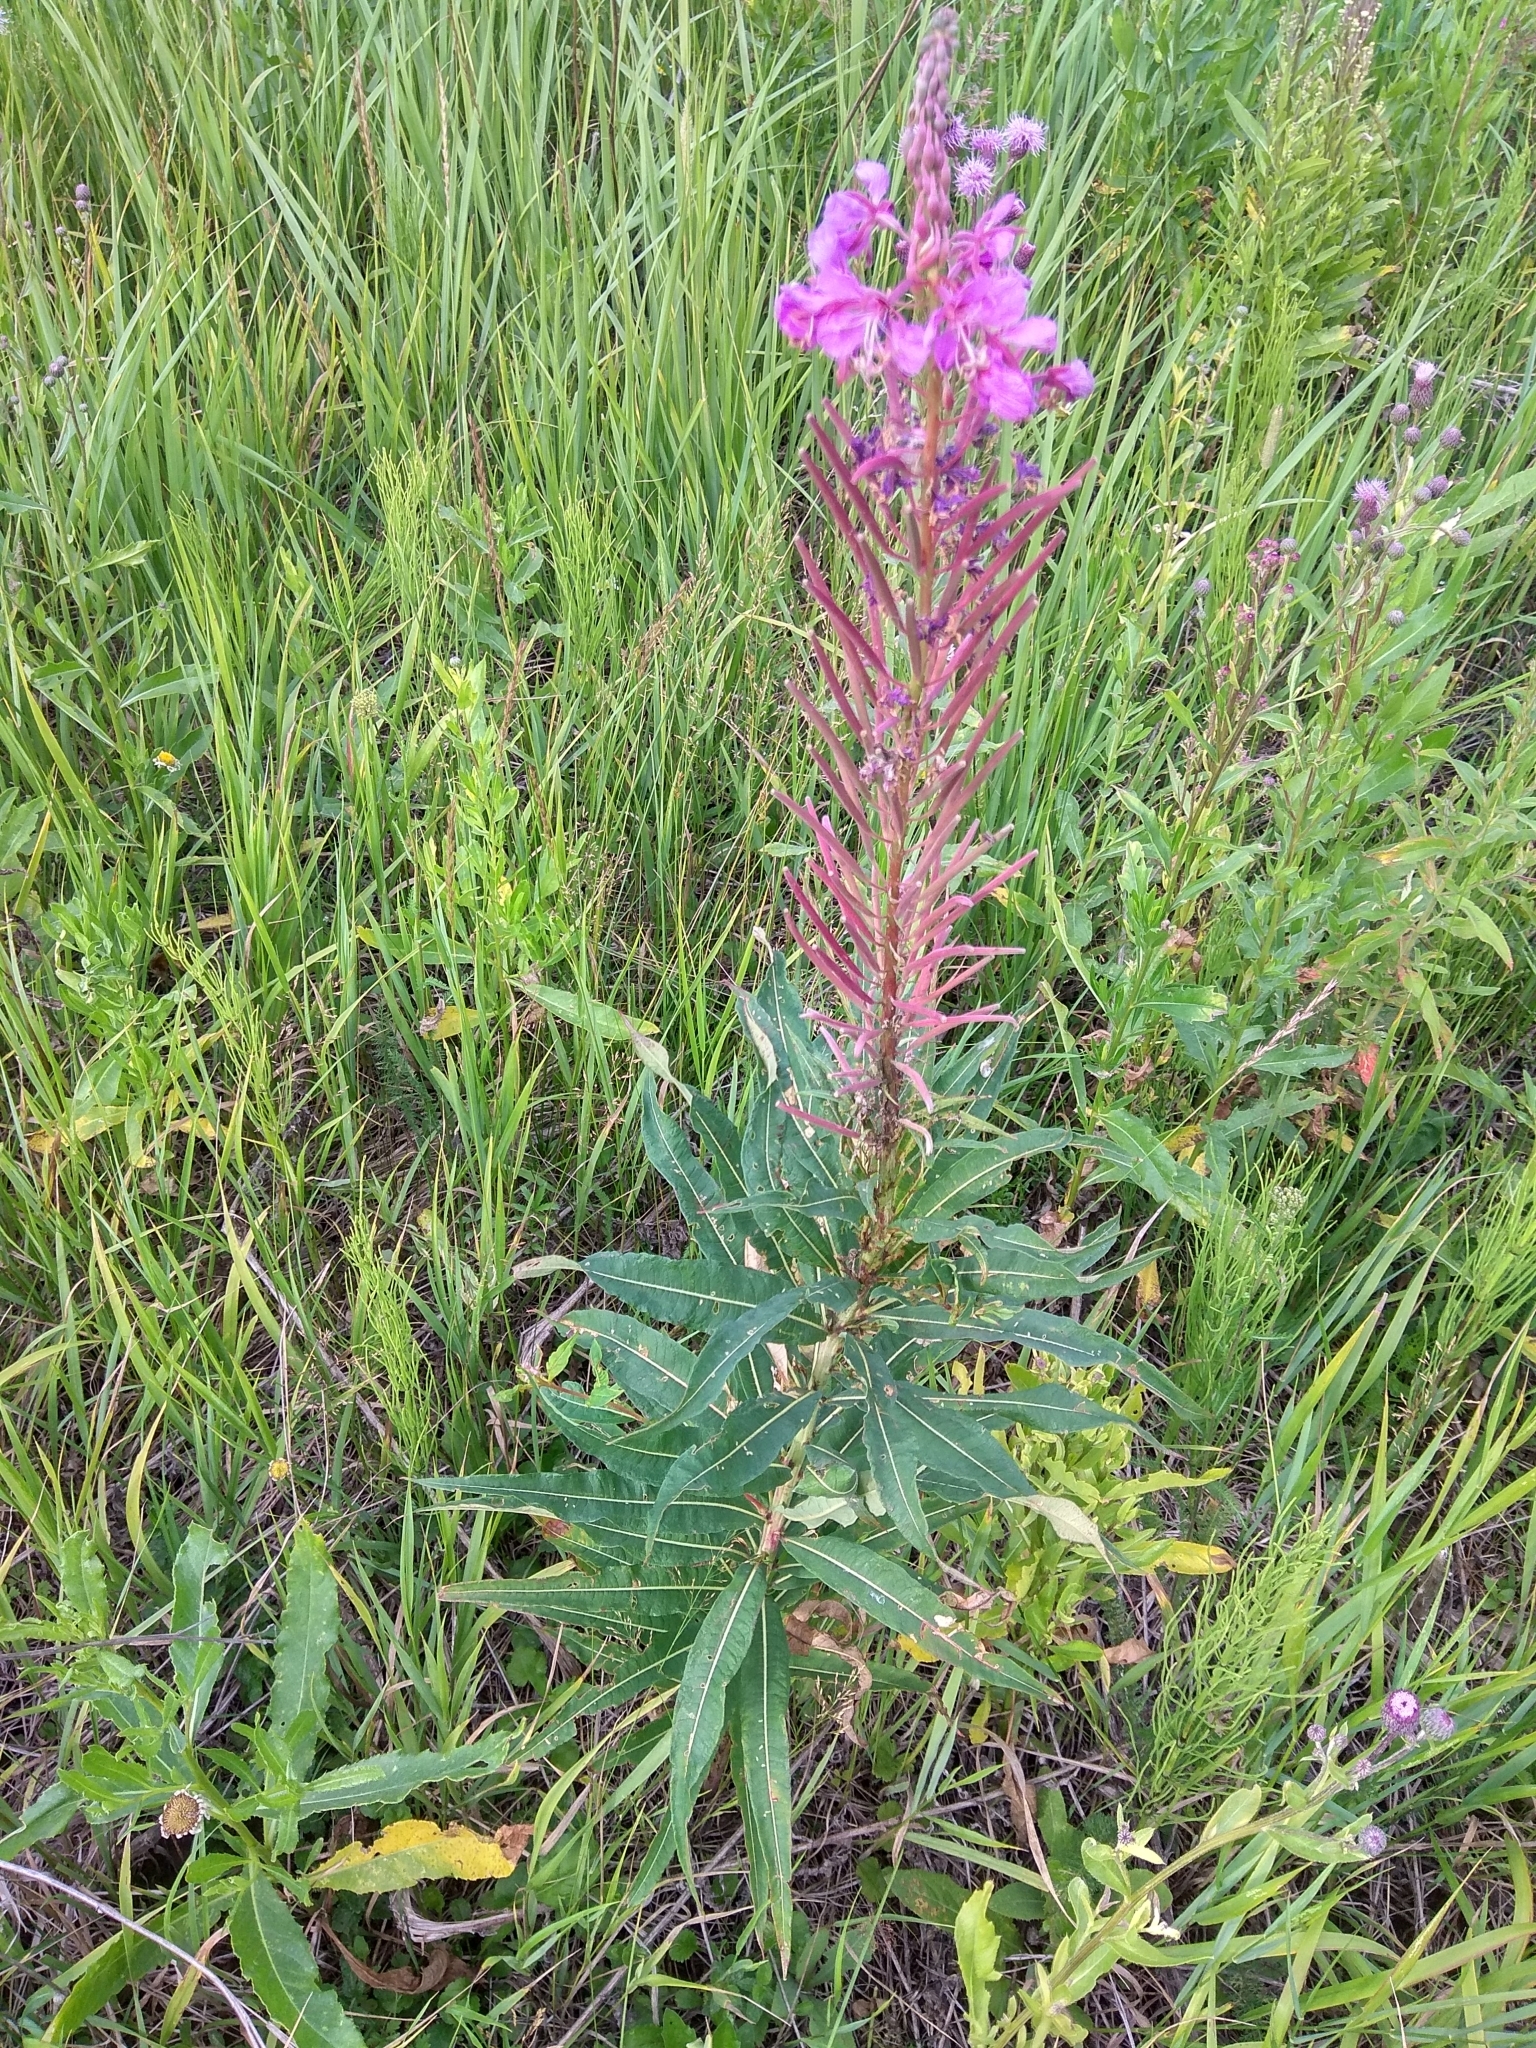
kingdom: Plantae
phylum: Tracheophyta
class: Magnoliopsida
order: Myrtales
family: Onagraceae
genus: Chamaenerion
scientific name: Chamaenerion angustifolium
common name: Fireweed
